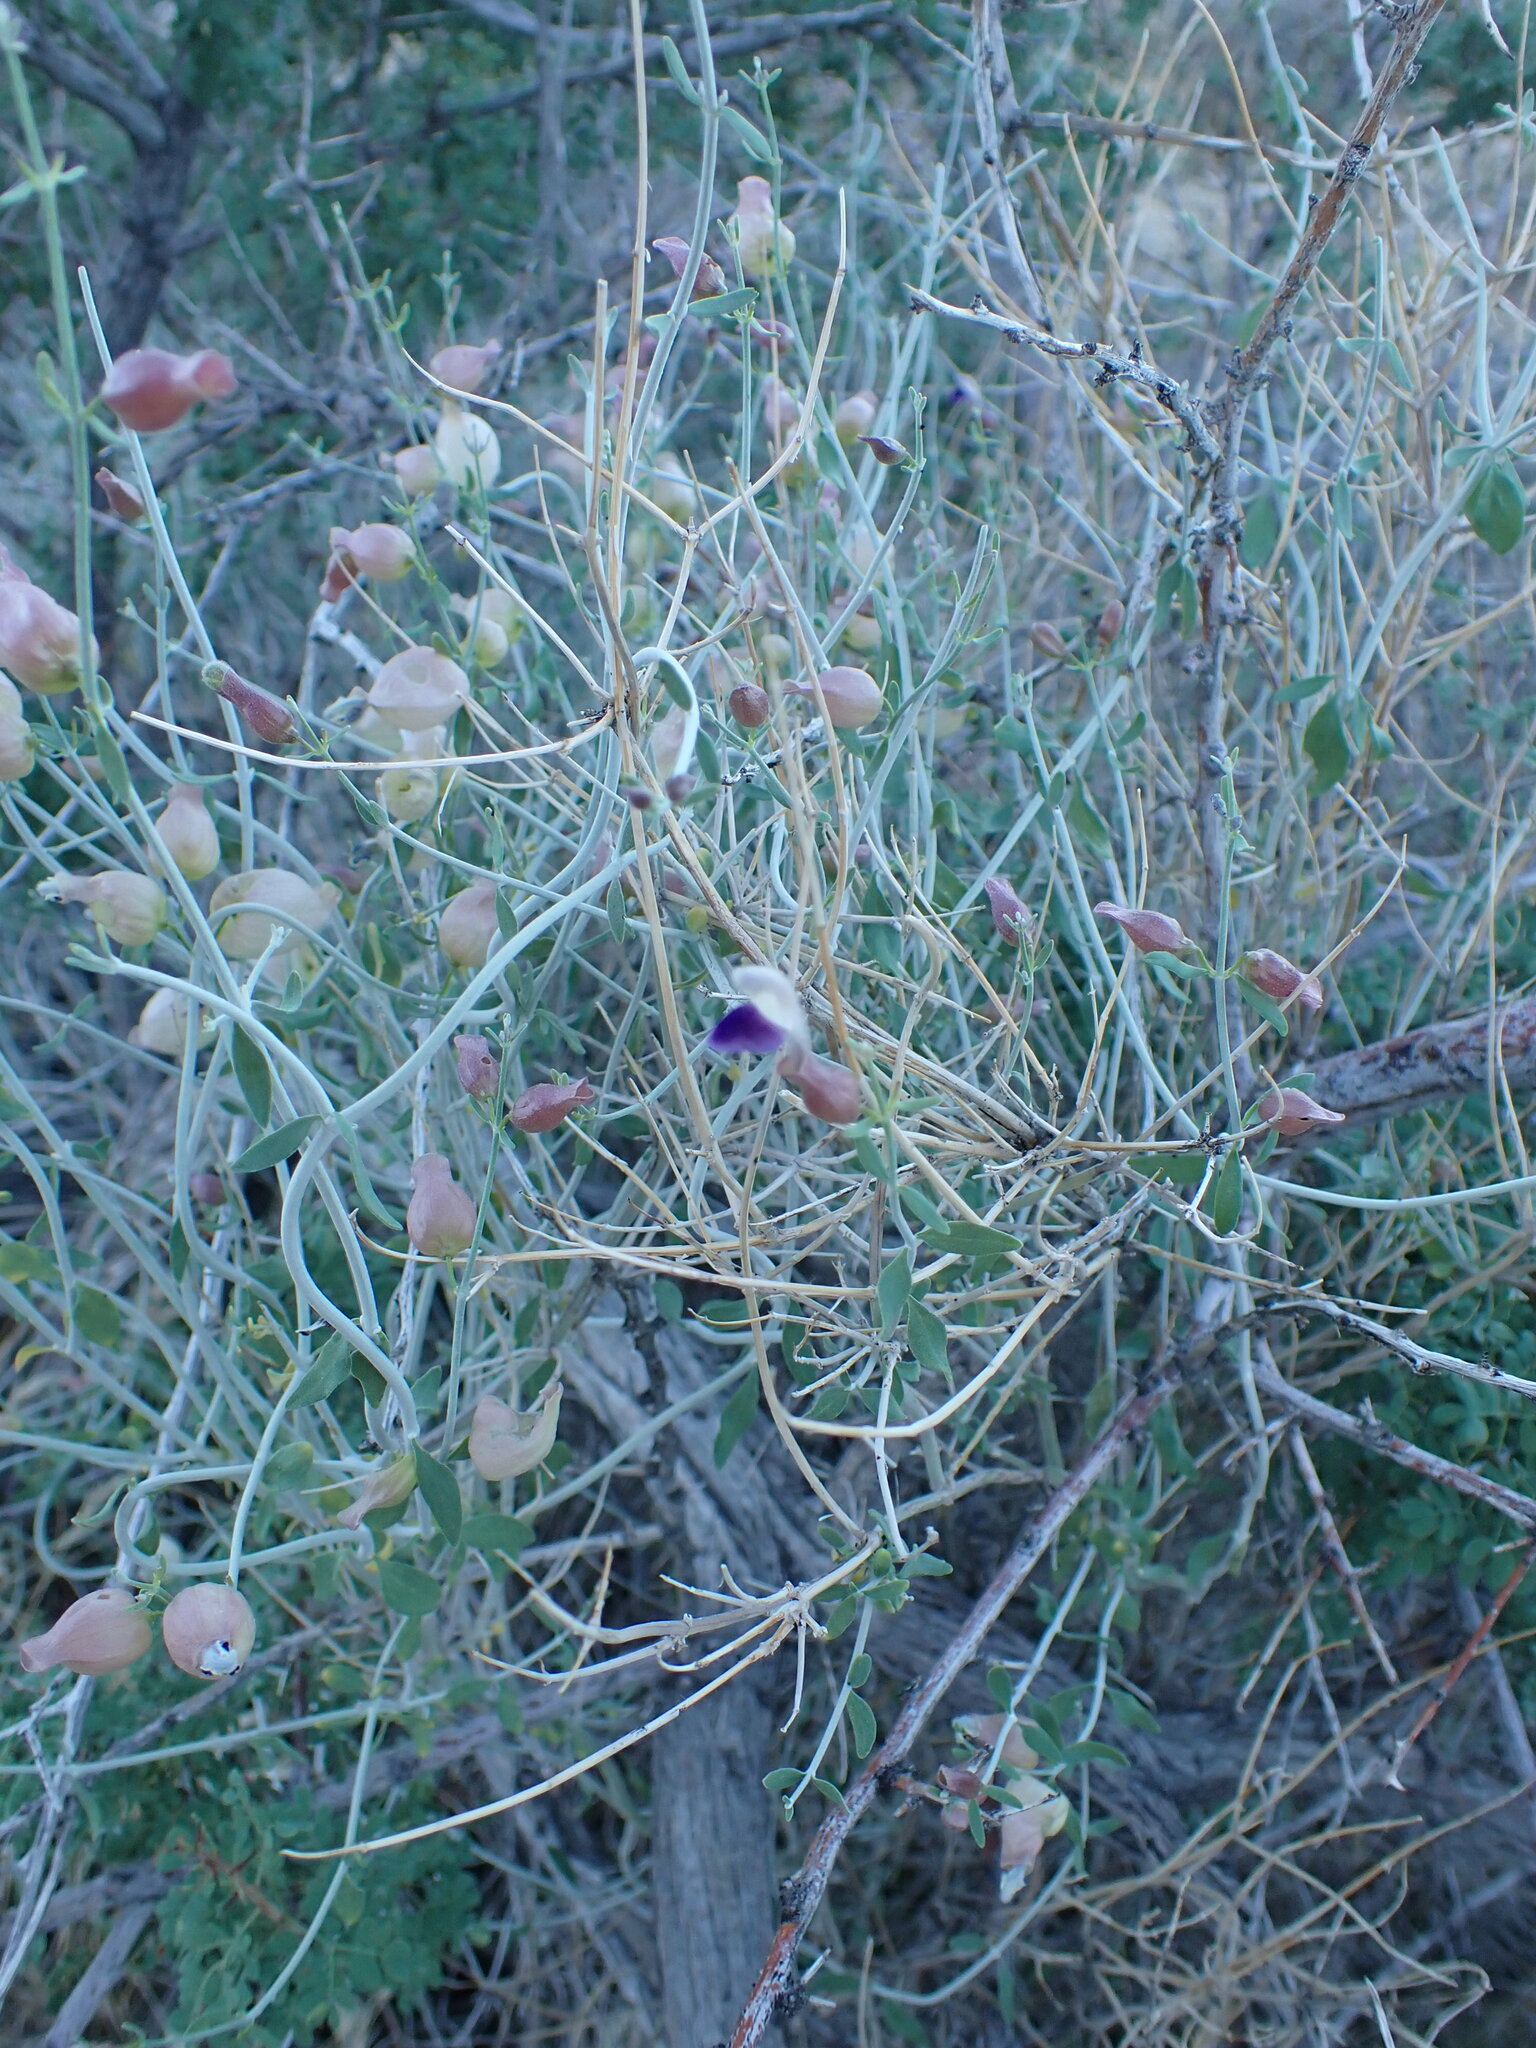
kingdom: Plantae
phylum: Tracheophyta
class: Magnoliopsida
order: Lamiales
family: Lamiaceae
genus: Scutellaria
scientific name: Scutellaria mexicana
